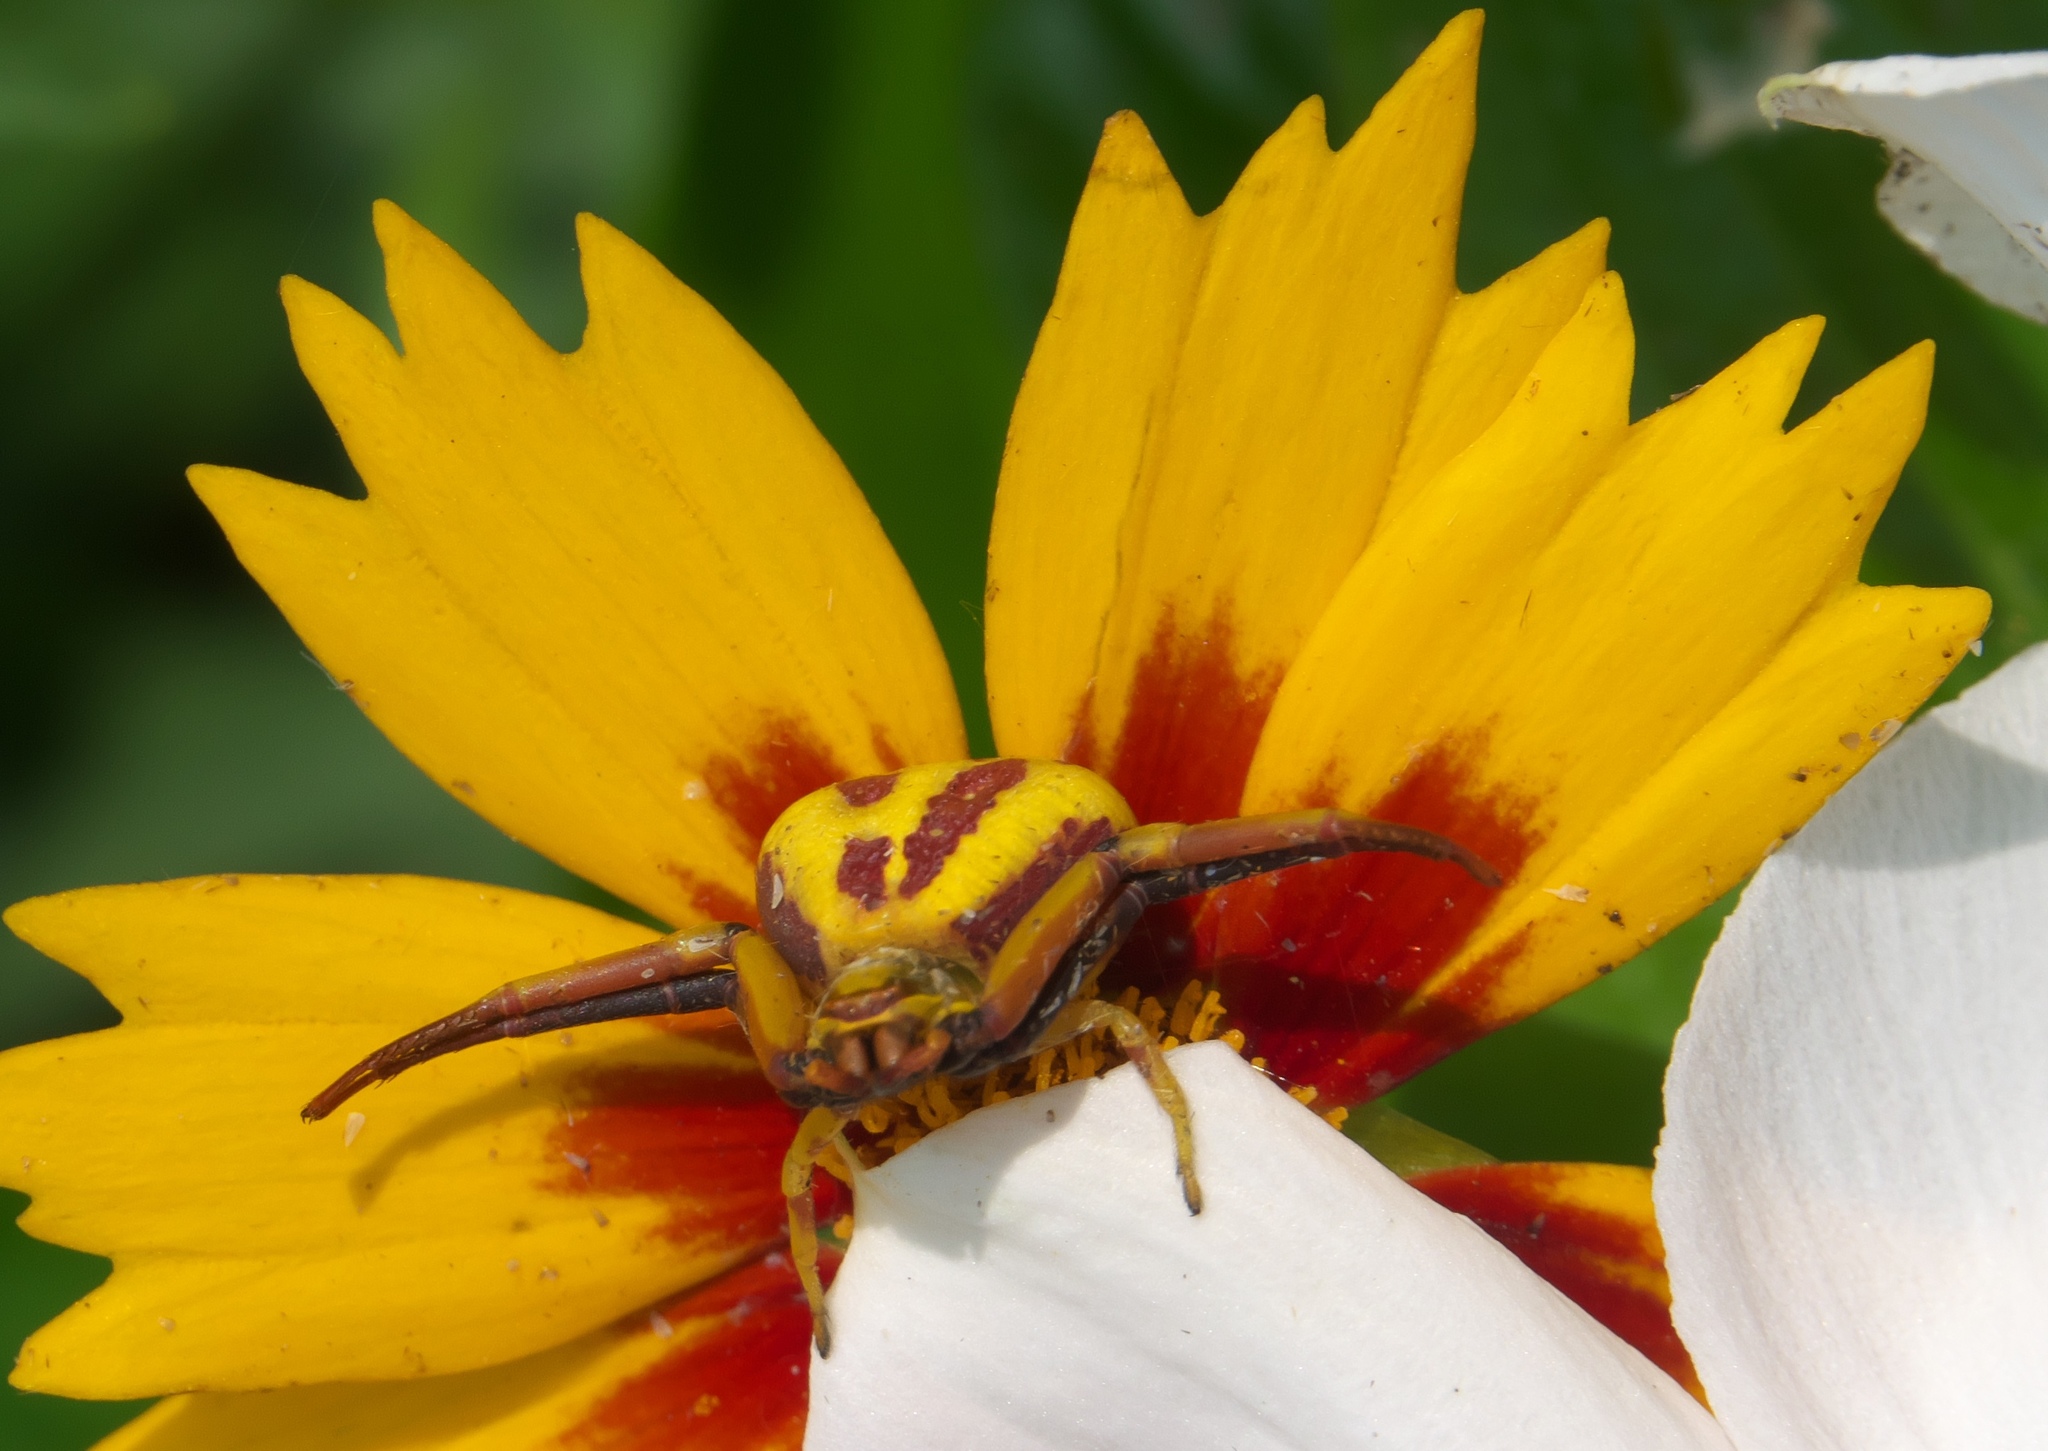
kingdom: Animalia
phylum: Arthropoda
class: Arachnida
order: Araneae
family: Thomisidae
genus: Misumenoides
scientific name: Misumenoides formosipes
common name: White-banded crab spider
